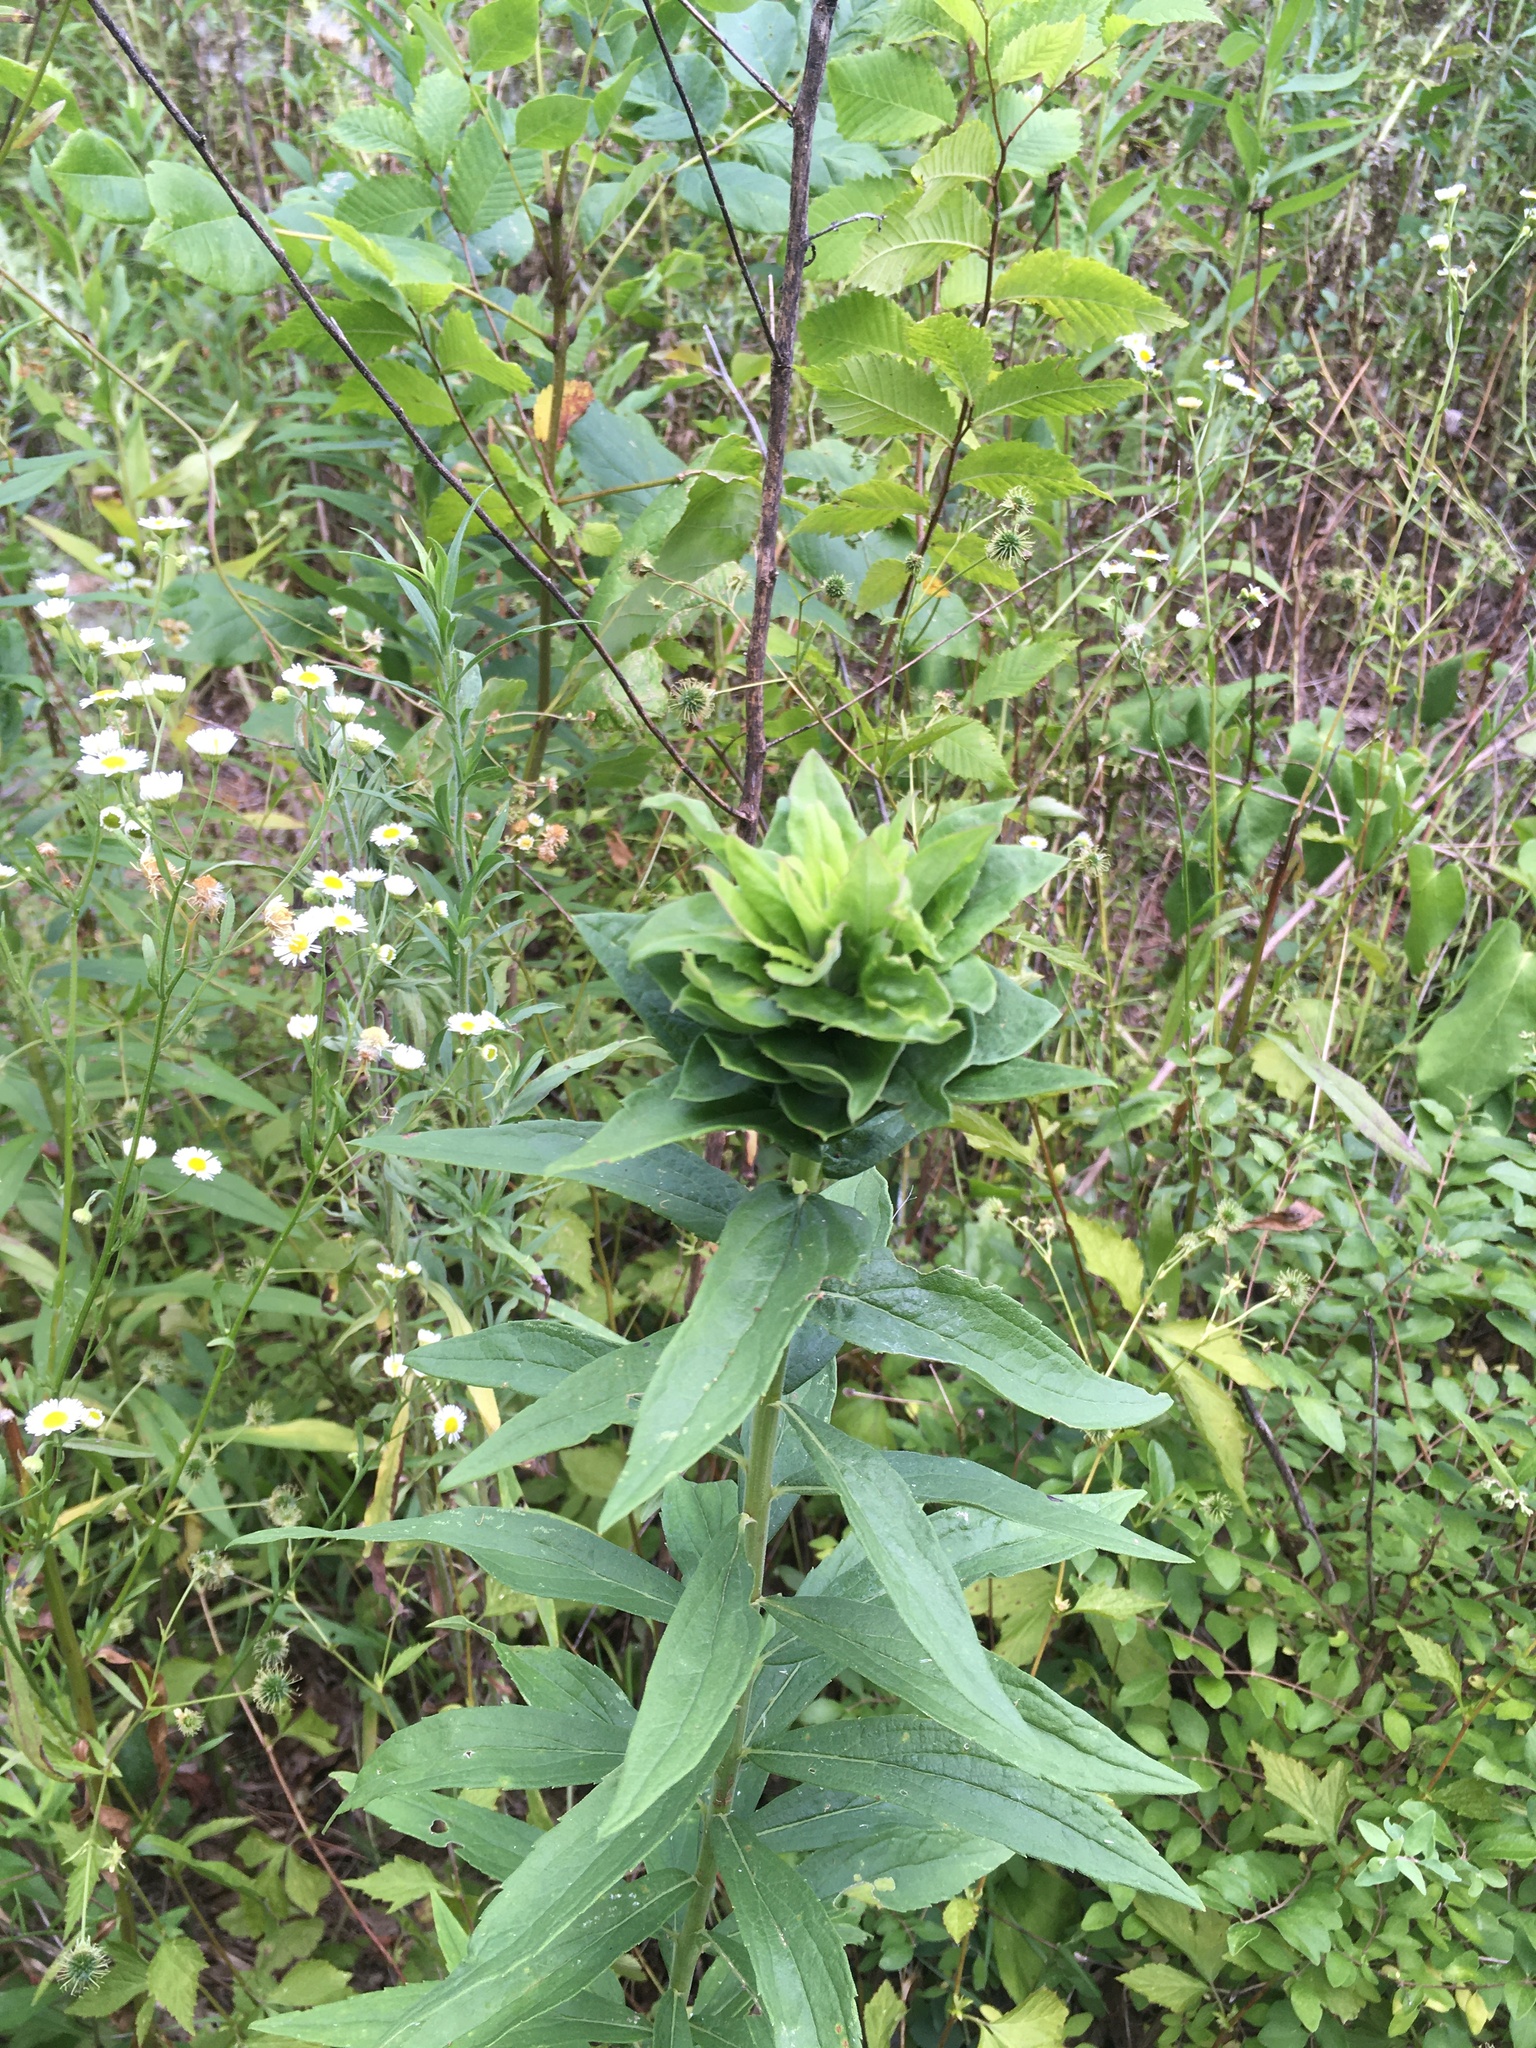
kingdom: Animalia
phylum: Arthropoda
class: Insecta
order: Diptera
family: Cecidomyiidae
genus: Rhopalomyia
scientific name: Rhopalomyia solidaginis
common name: Goldenrod bunch gall midge
